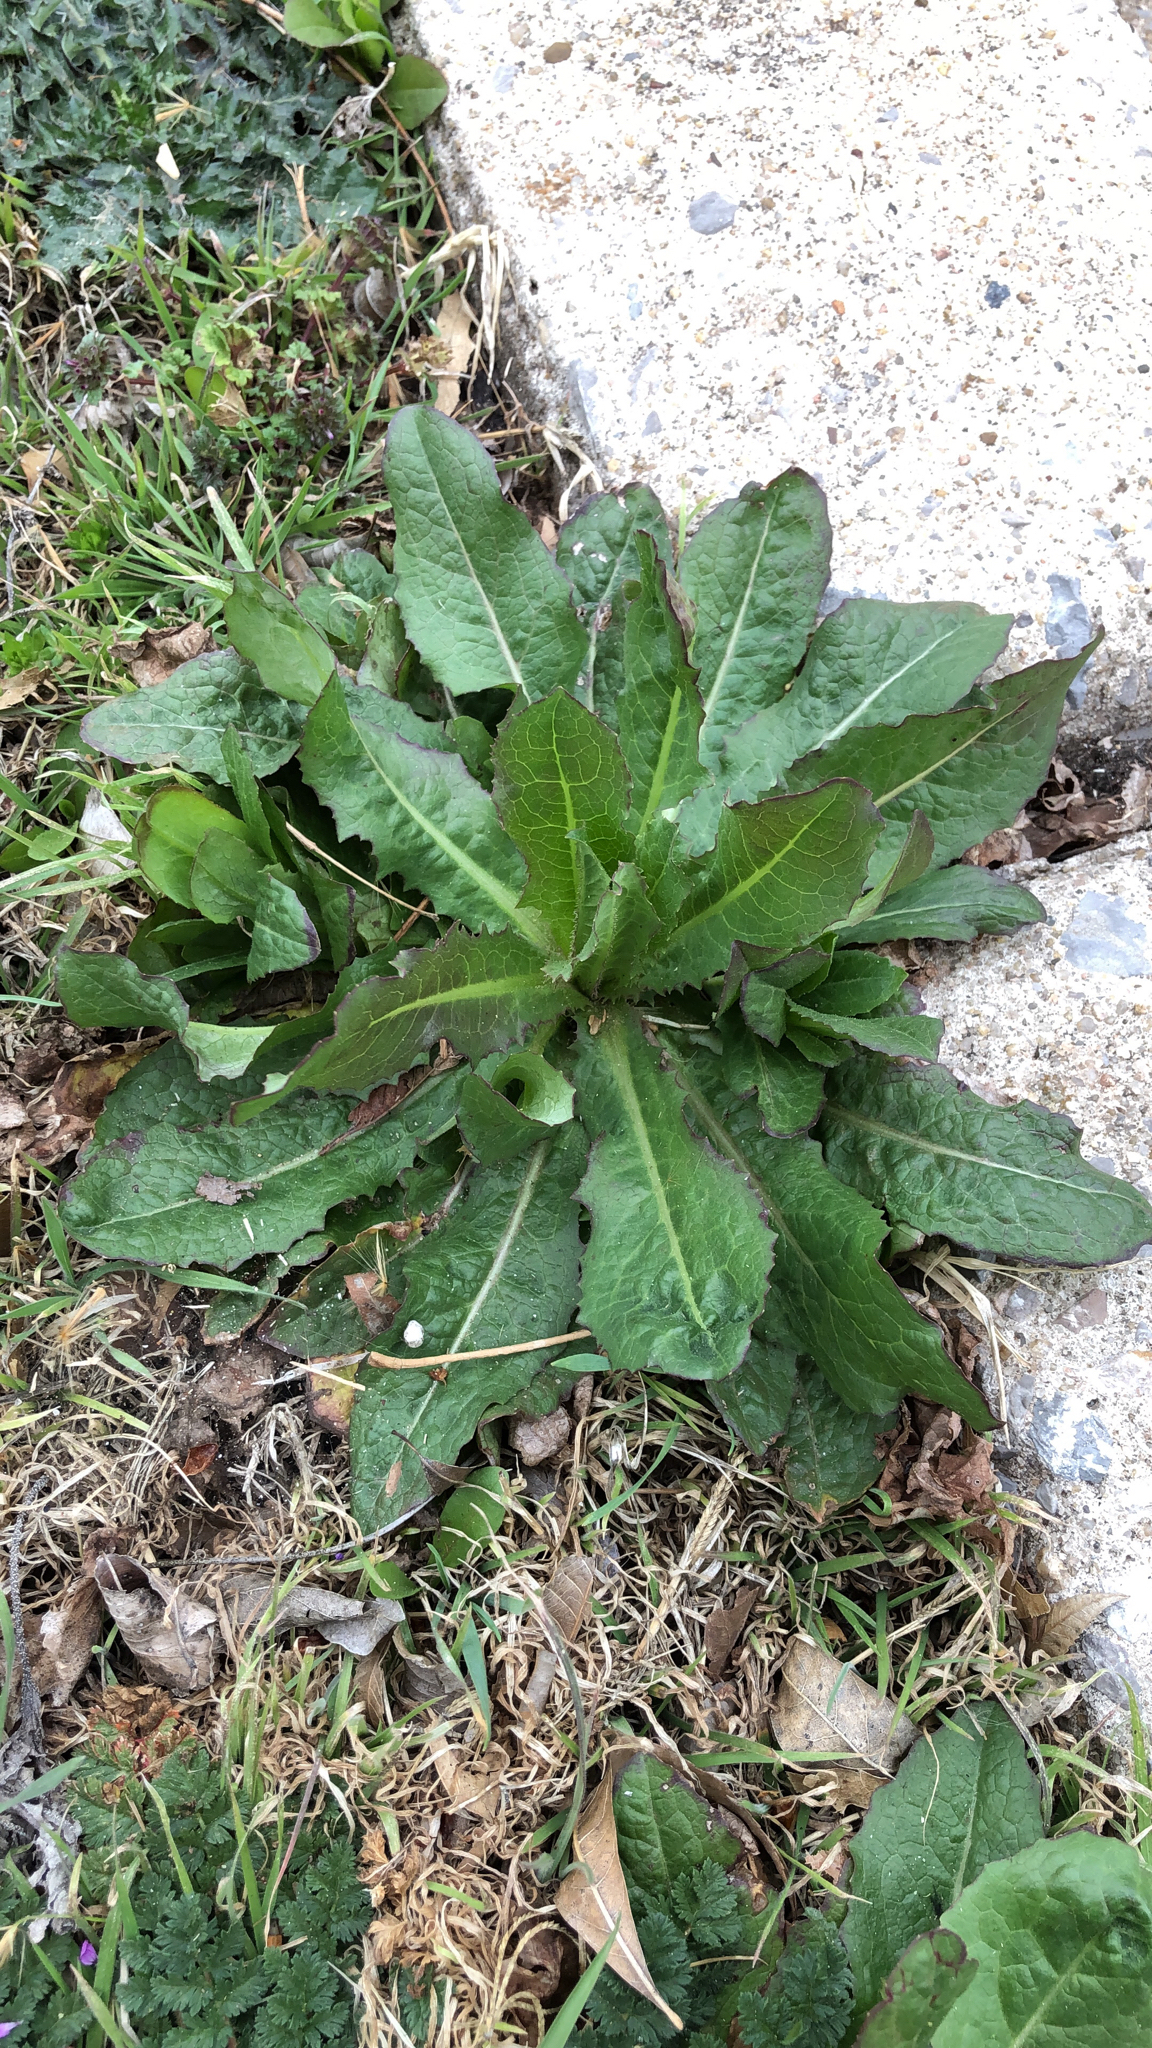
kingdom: Plantae
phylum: Tracheophyta
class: Magnoliopsida
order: Asterales
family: Asteraceae
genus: Lactuca
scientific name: Lactuca serriola
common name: Prickly lettuce
